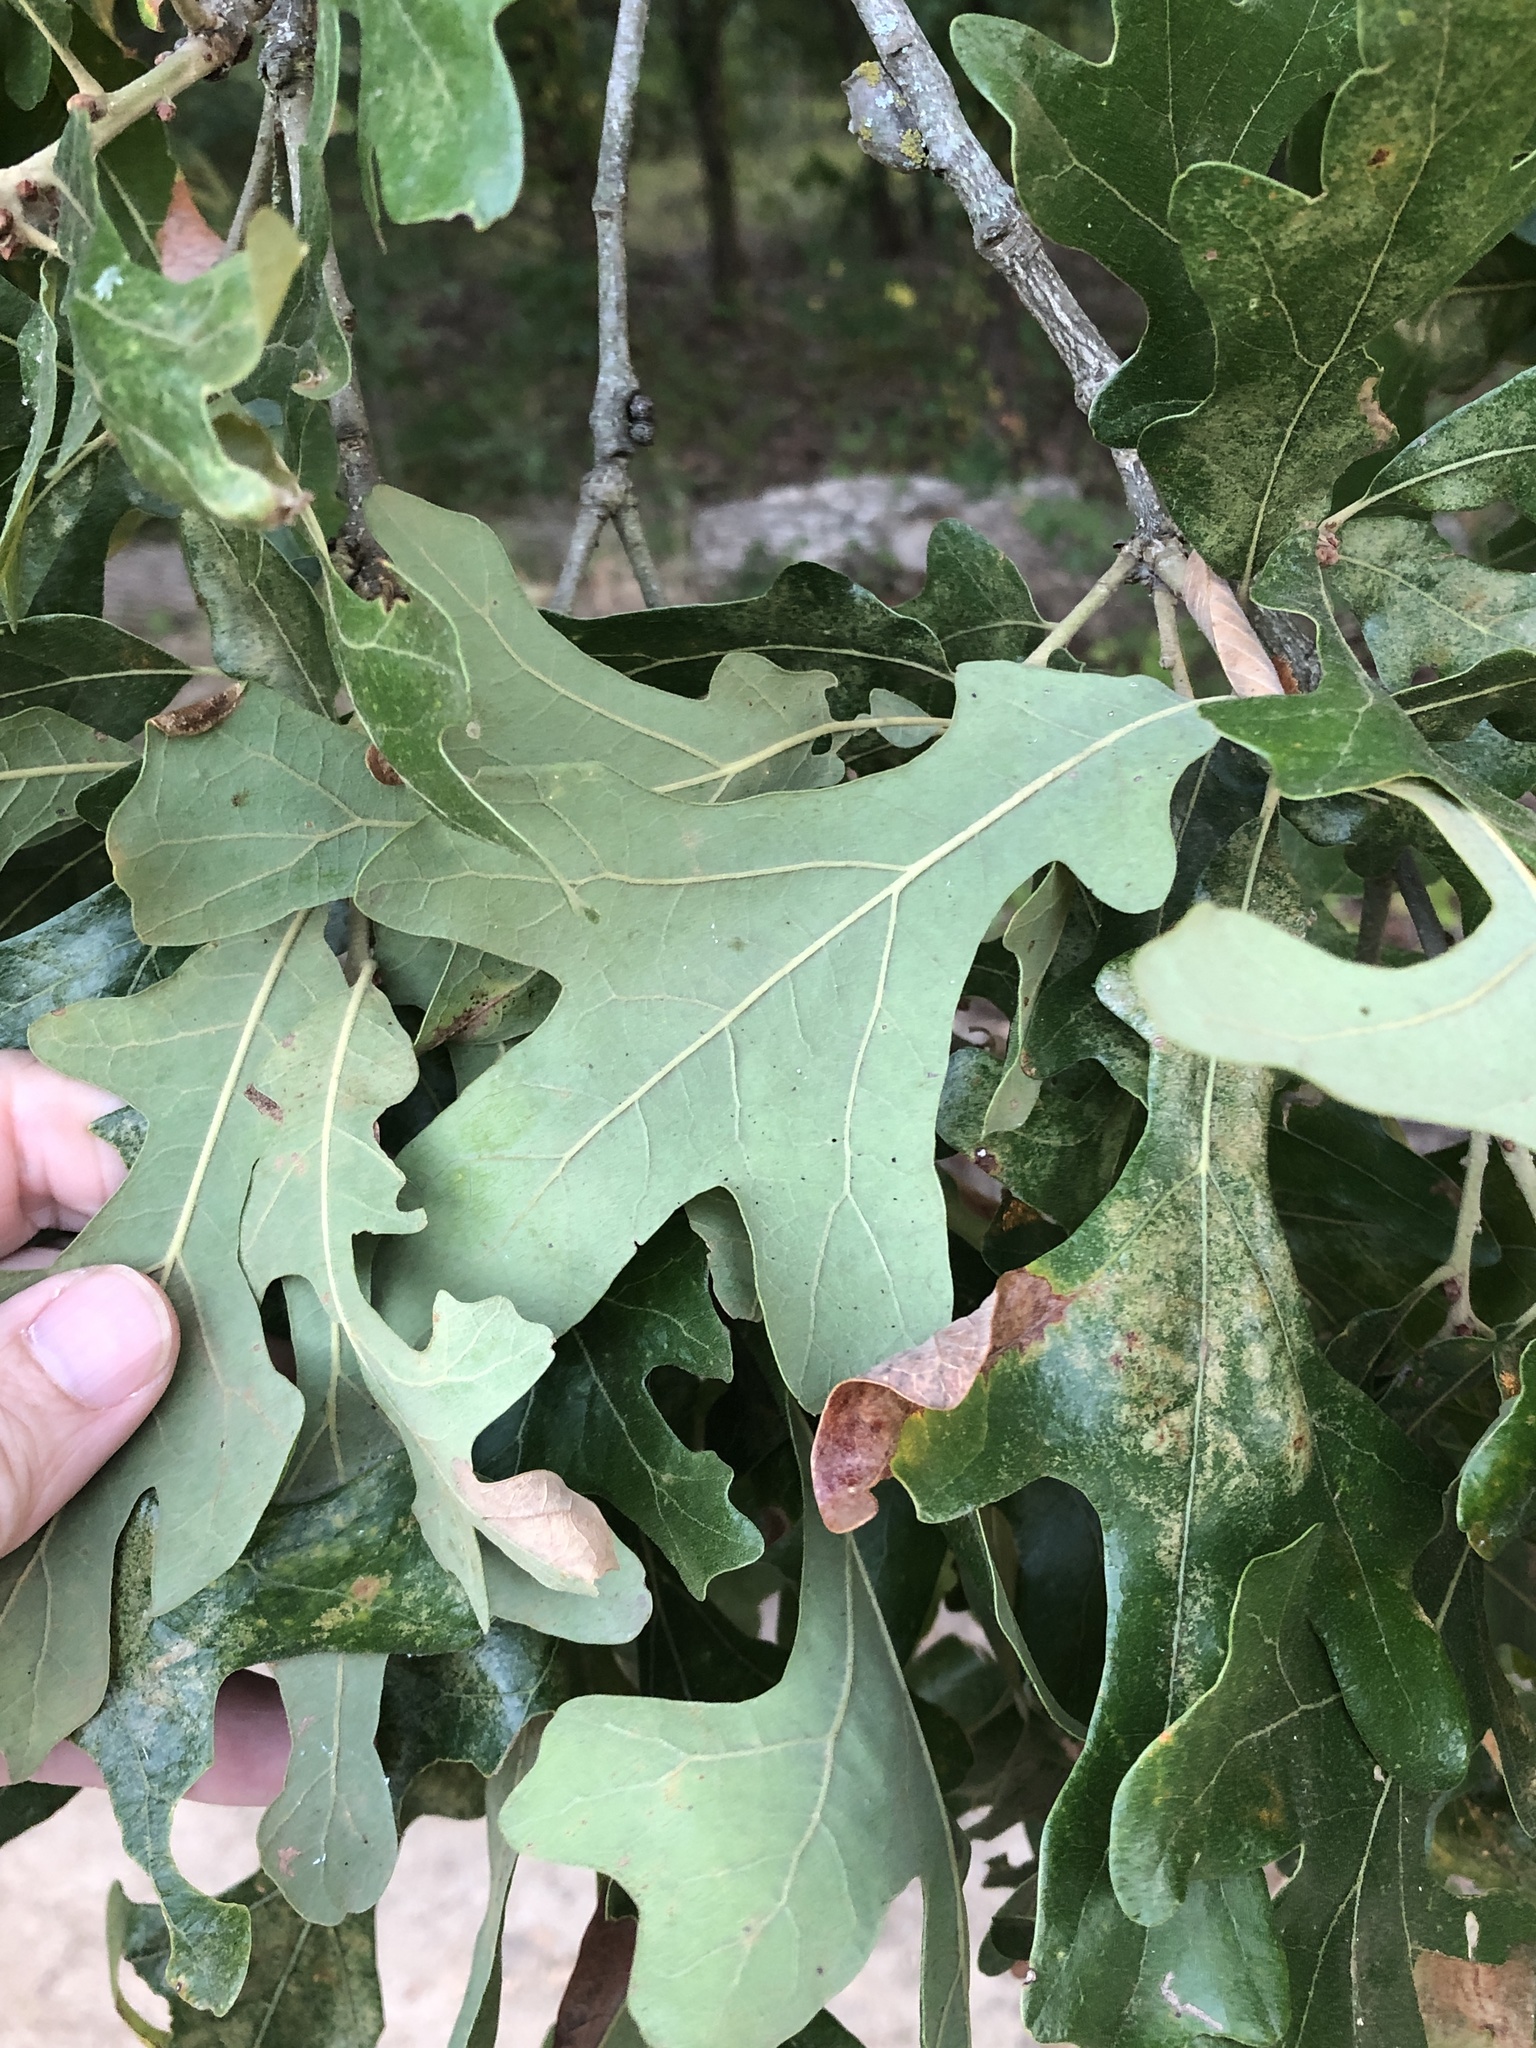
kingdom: Plantae
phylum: Tracheophyta
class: Magnoliopsida
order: Fagales
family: Fagaceae
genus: Quercus
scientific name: Quercus stellata
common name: Post oak
